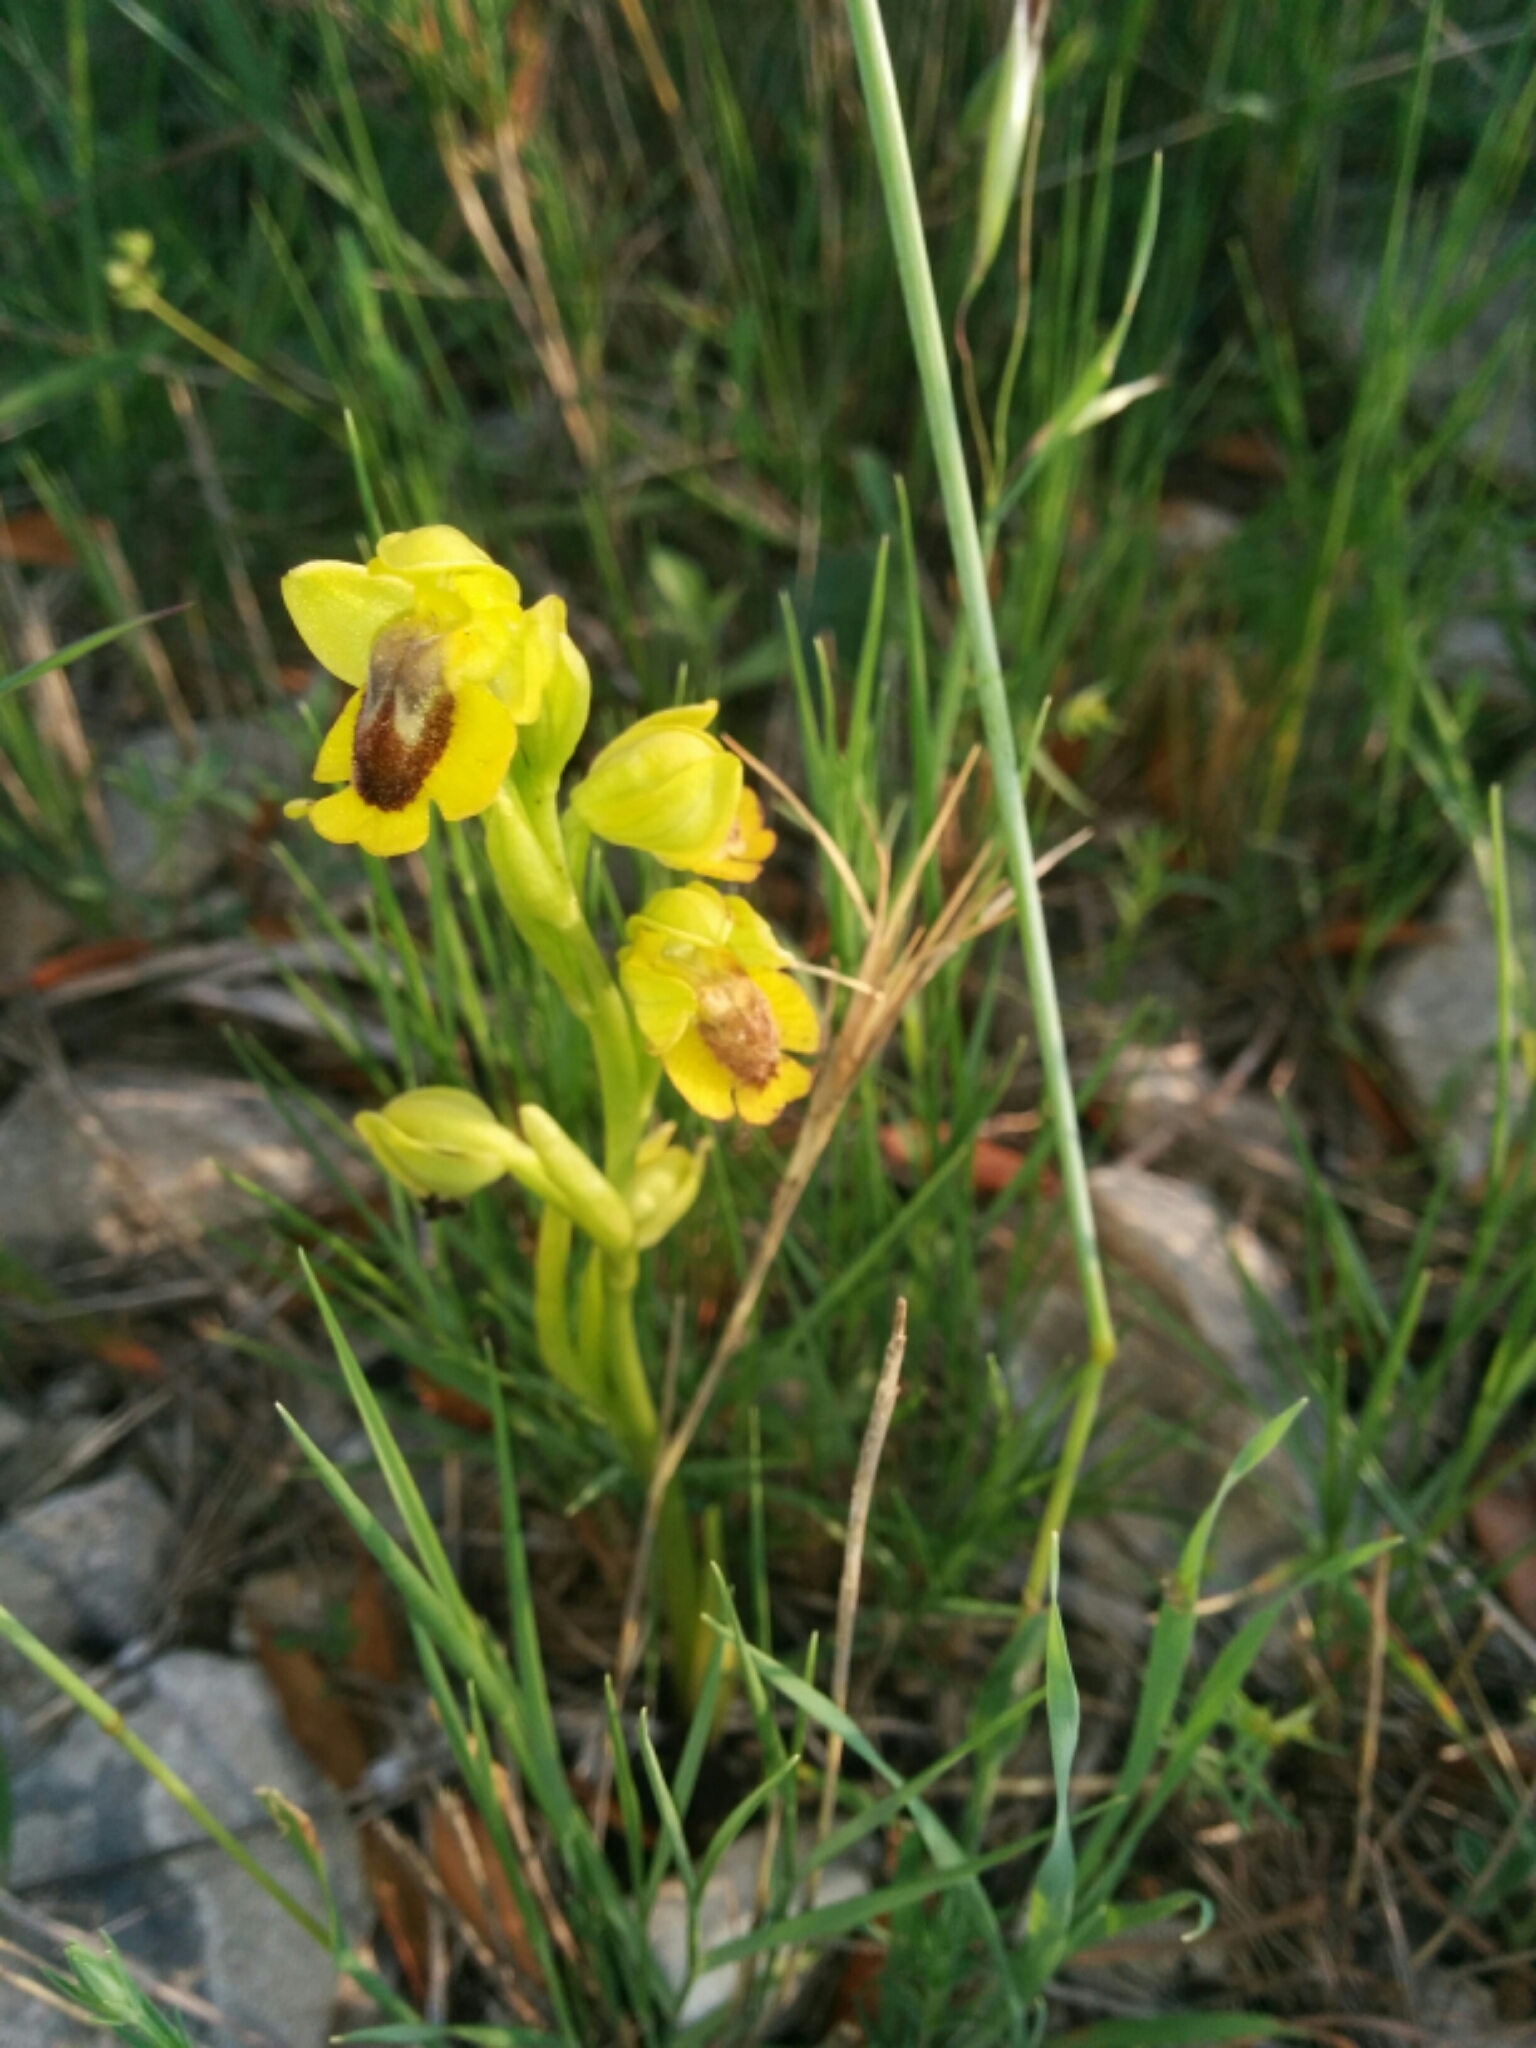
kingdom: Plantae
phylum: Tracheophyta
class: Liliopsida
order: Asparagales
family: Orchidaceae
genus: Ophrys
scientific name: Ophrys lutea
